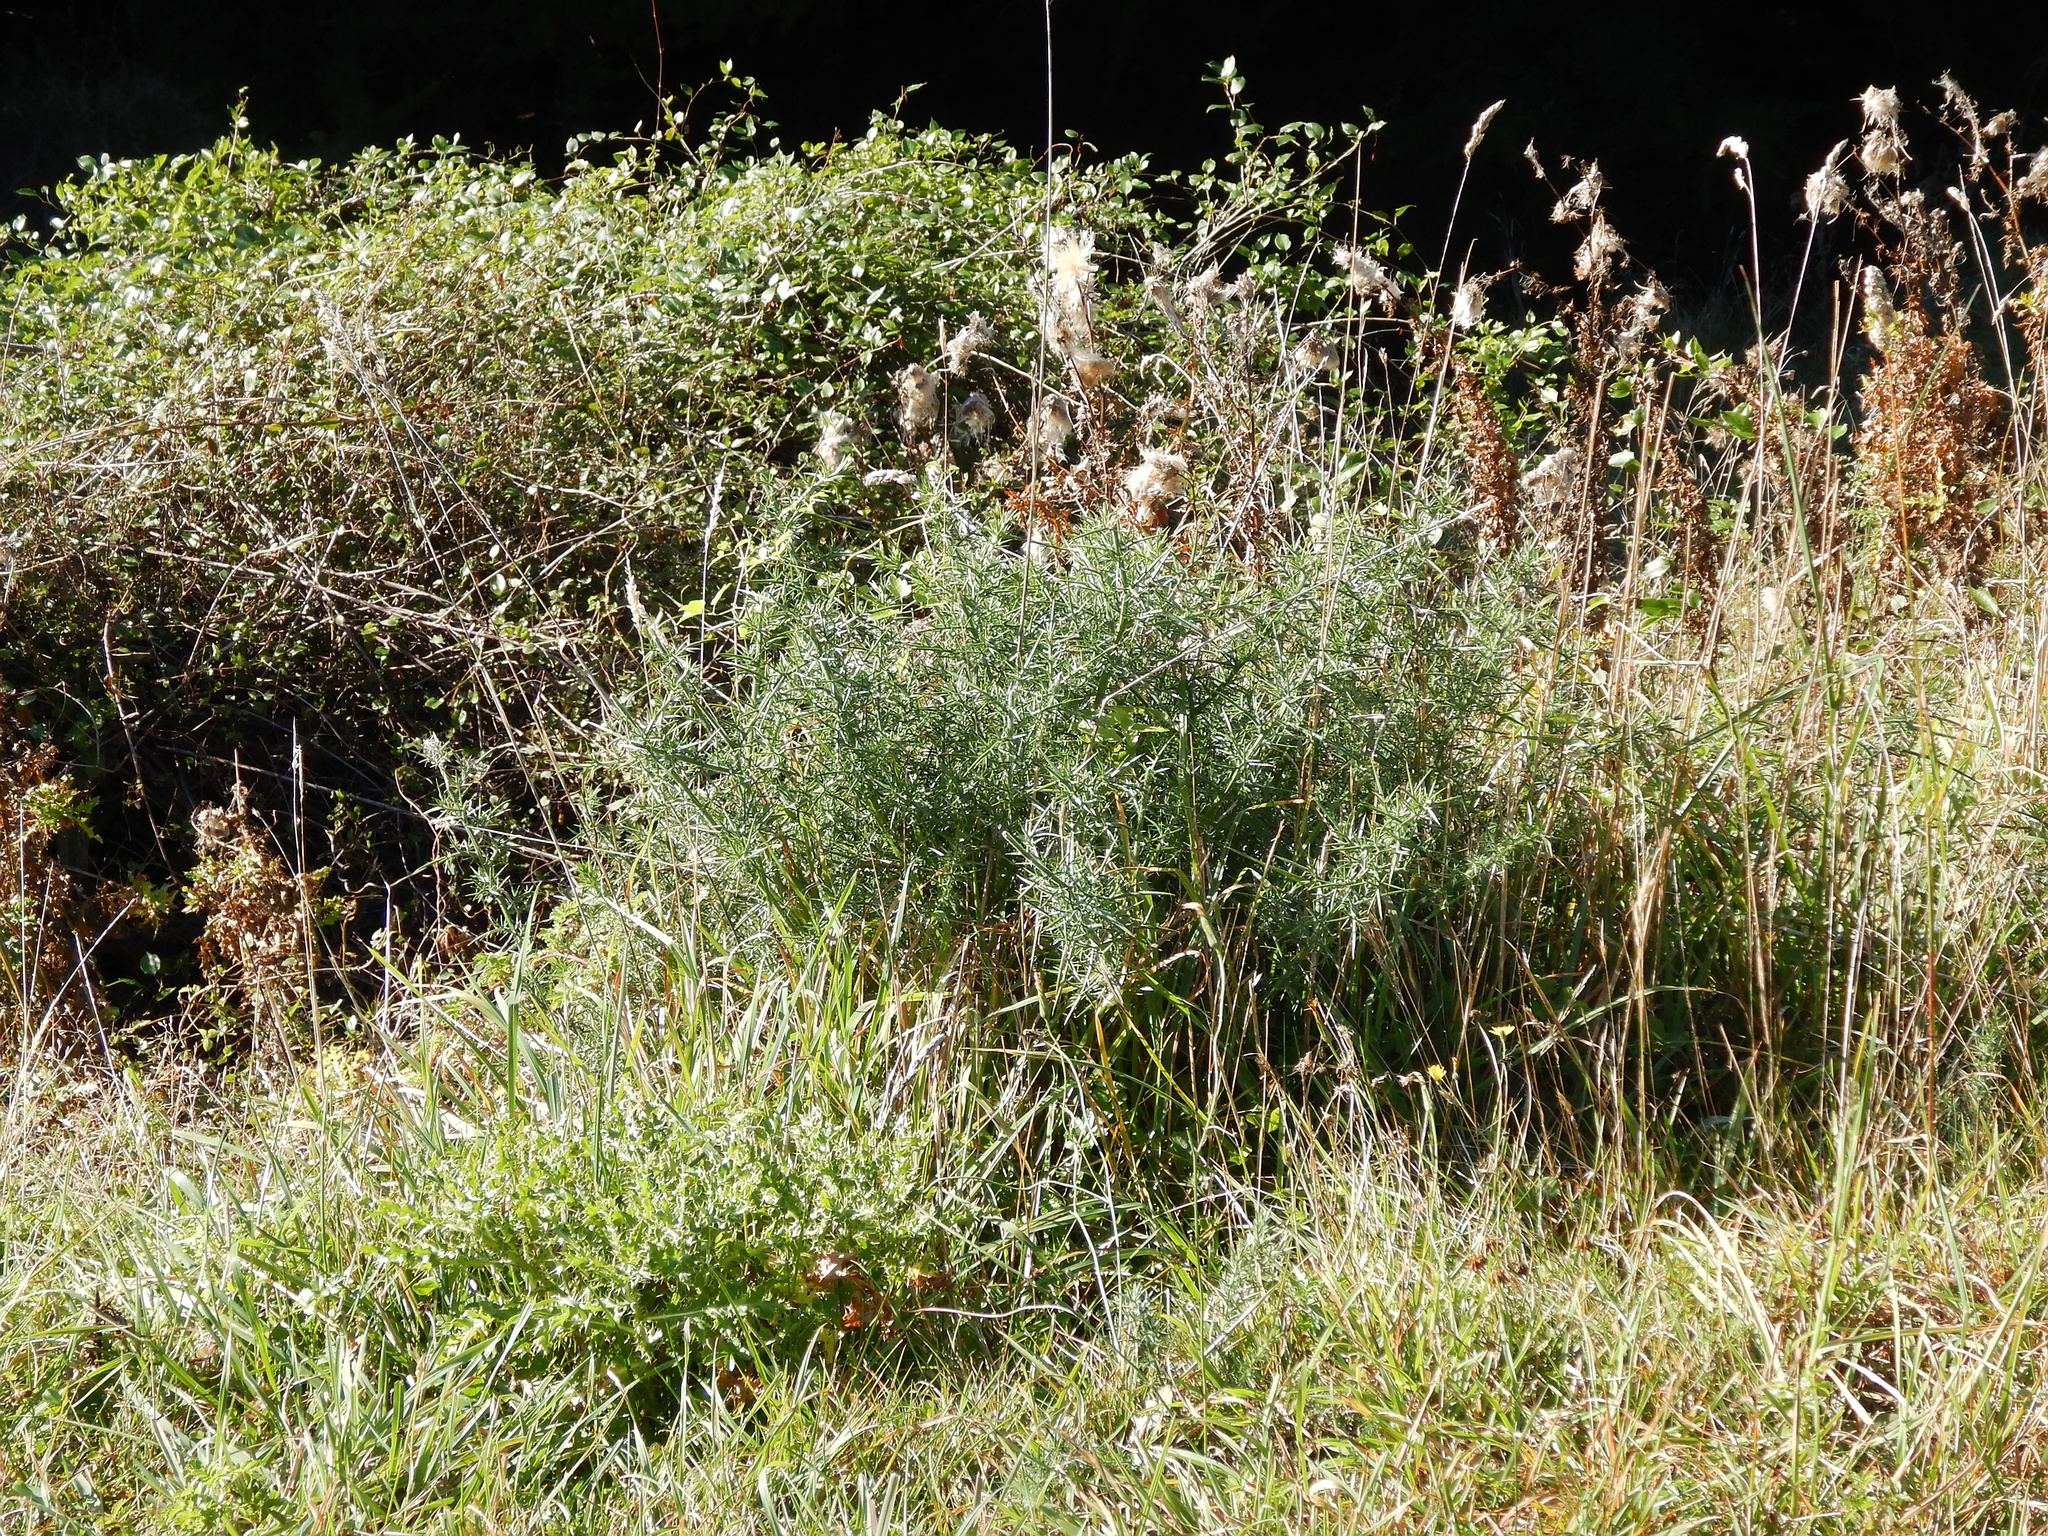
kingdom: Plantae
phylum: Tracheophyta
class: Magnoliopsida
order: Fabales
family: Fabaceae
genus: Lupinus
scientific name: Lupinus arboreus
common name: Yellow bush lupine
